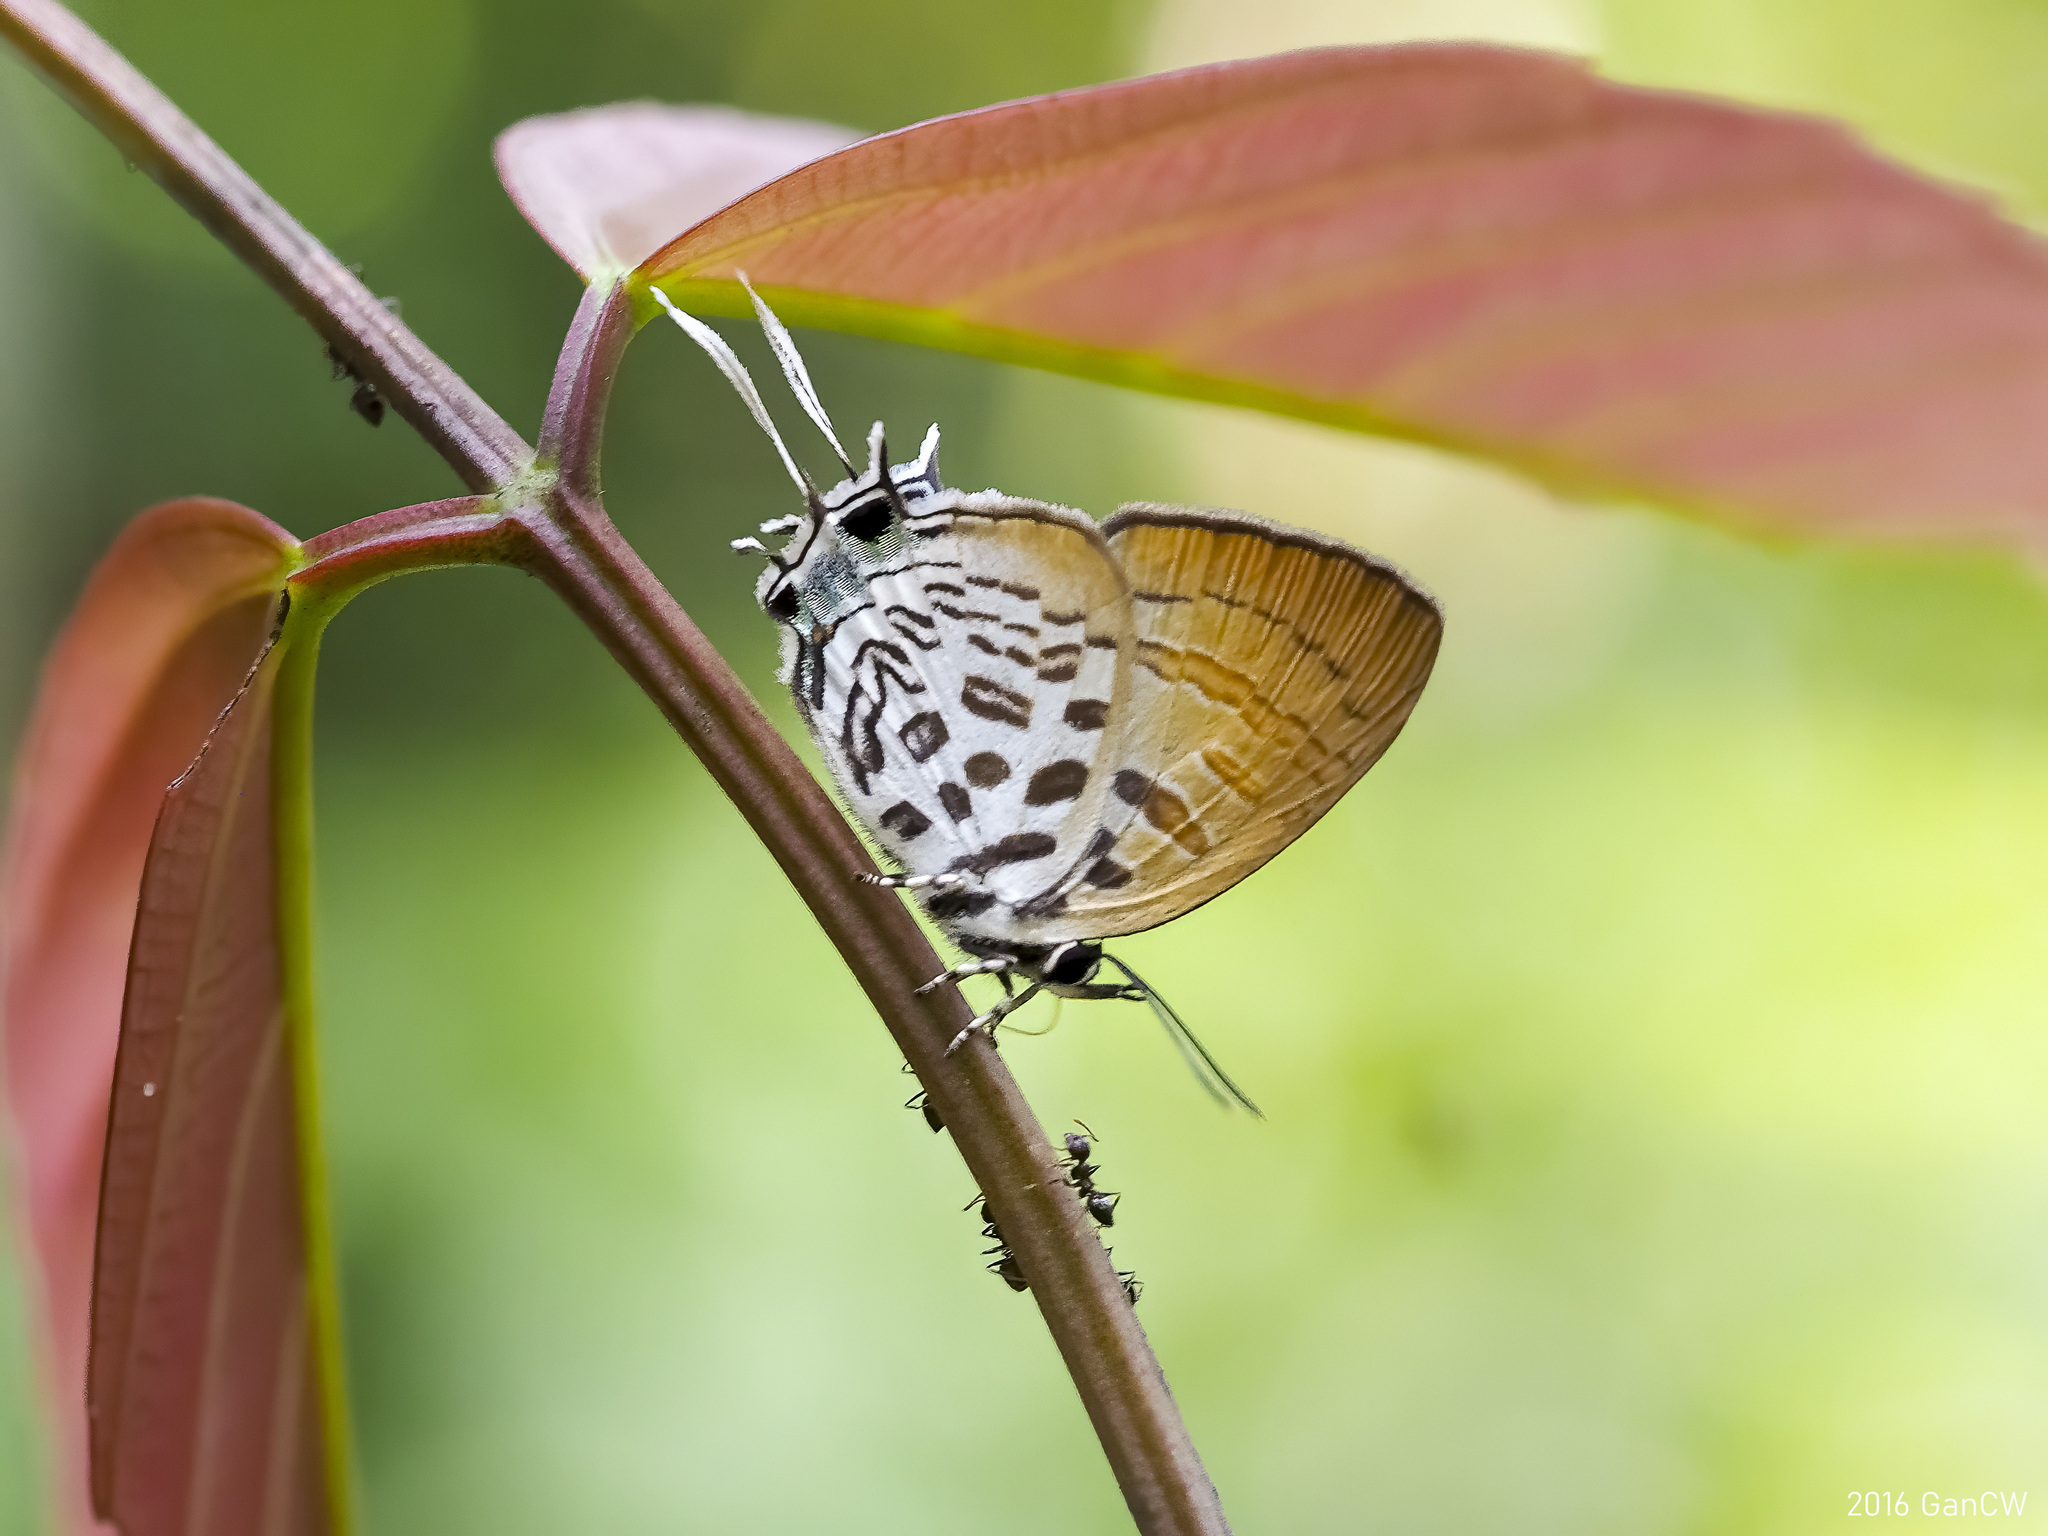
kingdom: Animalia
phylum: Arthropoda
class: Insecta
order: Lepidoptera
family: Lycaenidae
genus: Drupadia
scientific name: Drupadia theda
